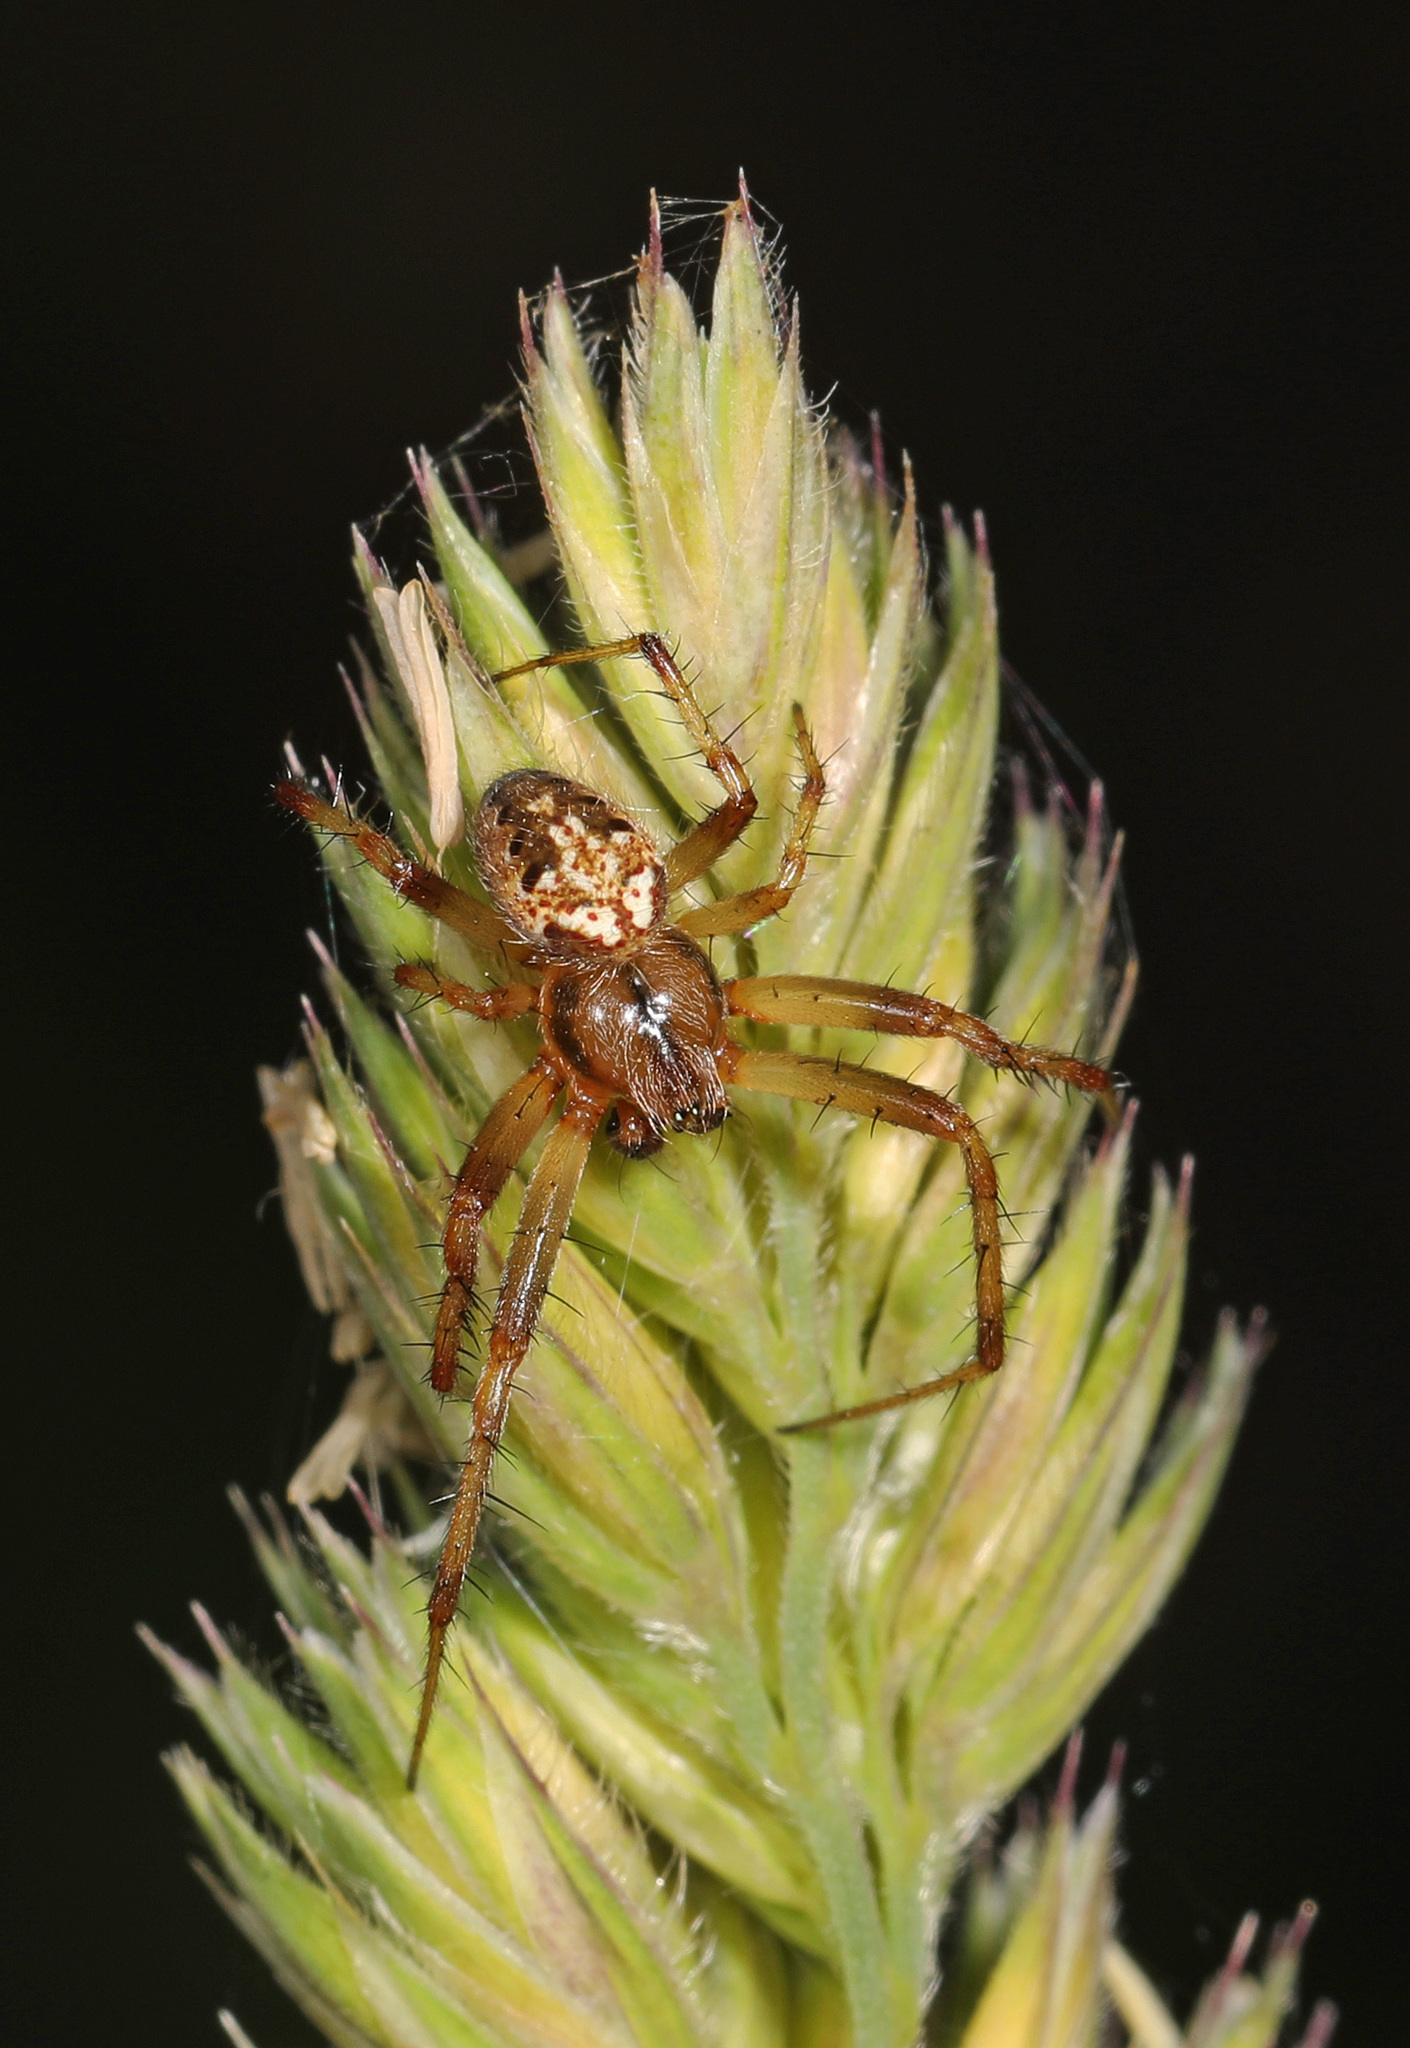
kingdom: Animalia
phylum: Arthropoda
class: Arachnida
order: Araneae
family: Araneidae
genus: Neoscona
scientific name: Neoscona arabesca
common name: Orb weavers
